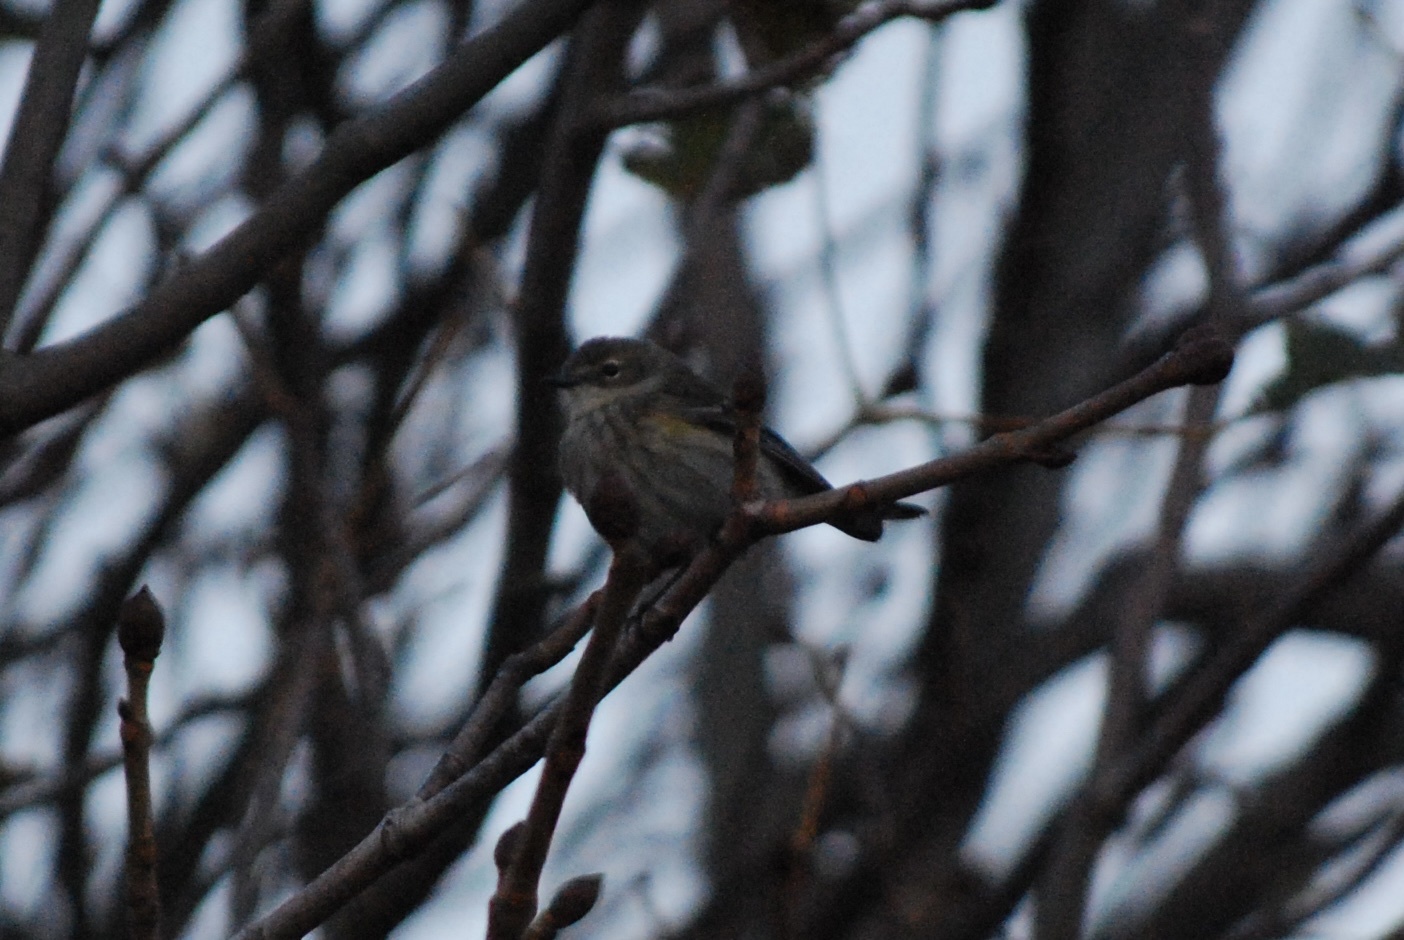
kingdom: Animalia
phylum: Chordata
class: Aves
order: Passeriformes
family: Parulidae
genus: Setophaga
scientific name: Setophaga coronata
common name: Myrtle warbler
